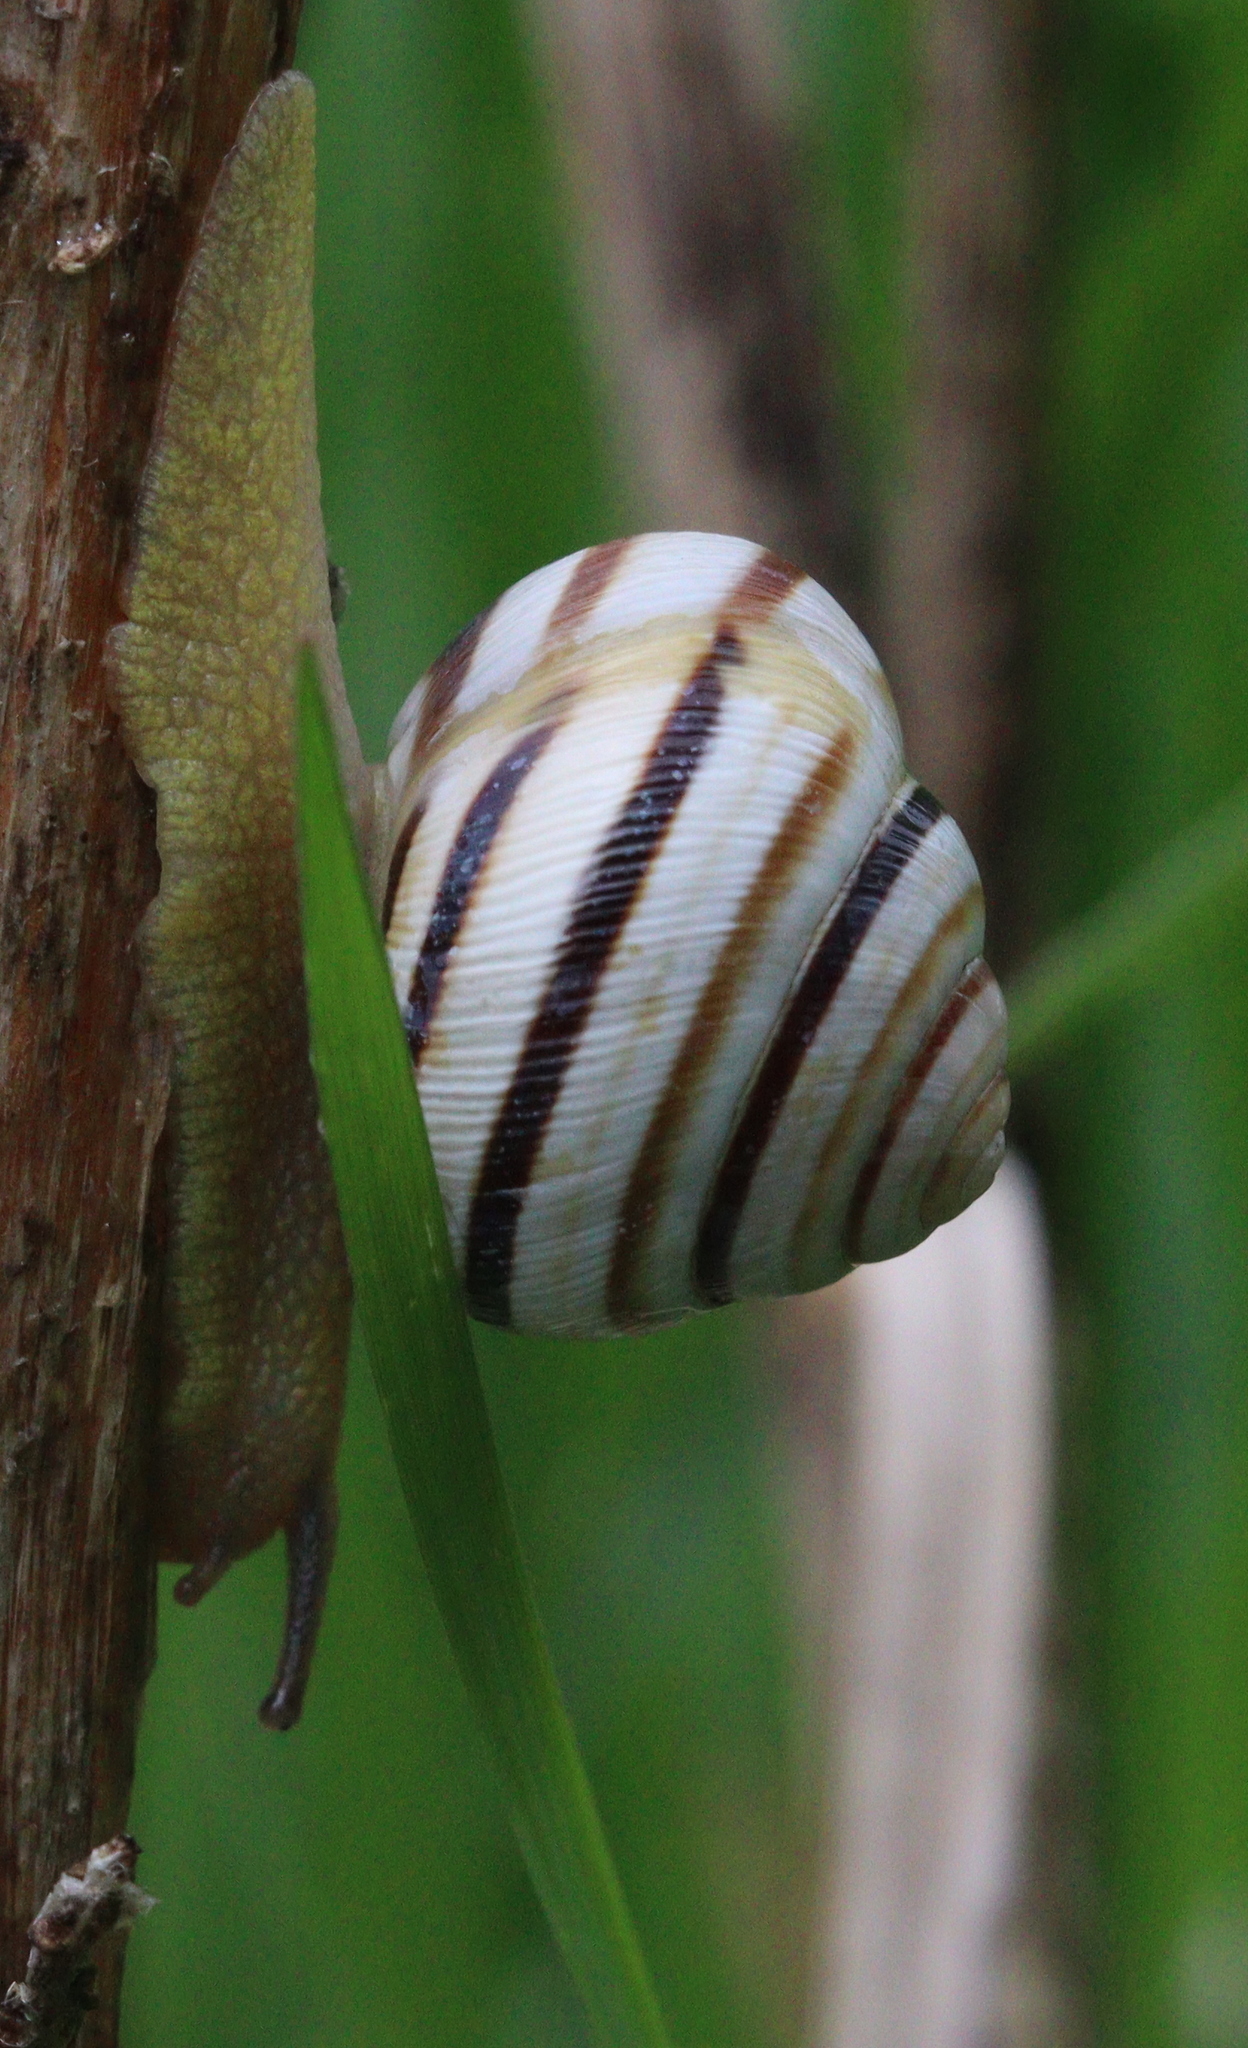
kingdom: Animalia
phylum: Mollusca
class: Gastropoda
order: Stylommatophora
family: Helicidae
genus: Caucasotachea
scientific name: Caucasotachea vindobonensis
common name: European helicid land snail
